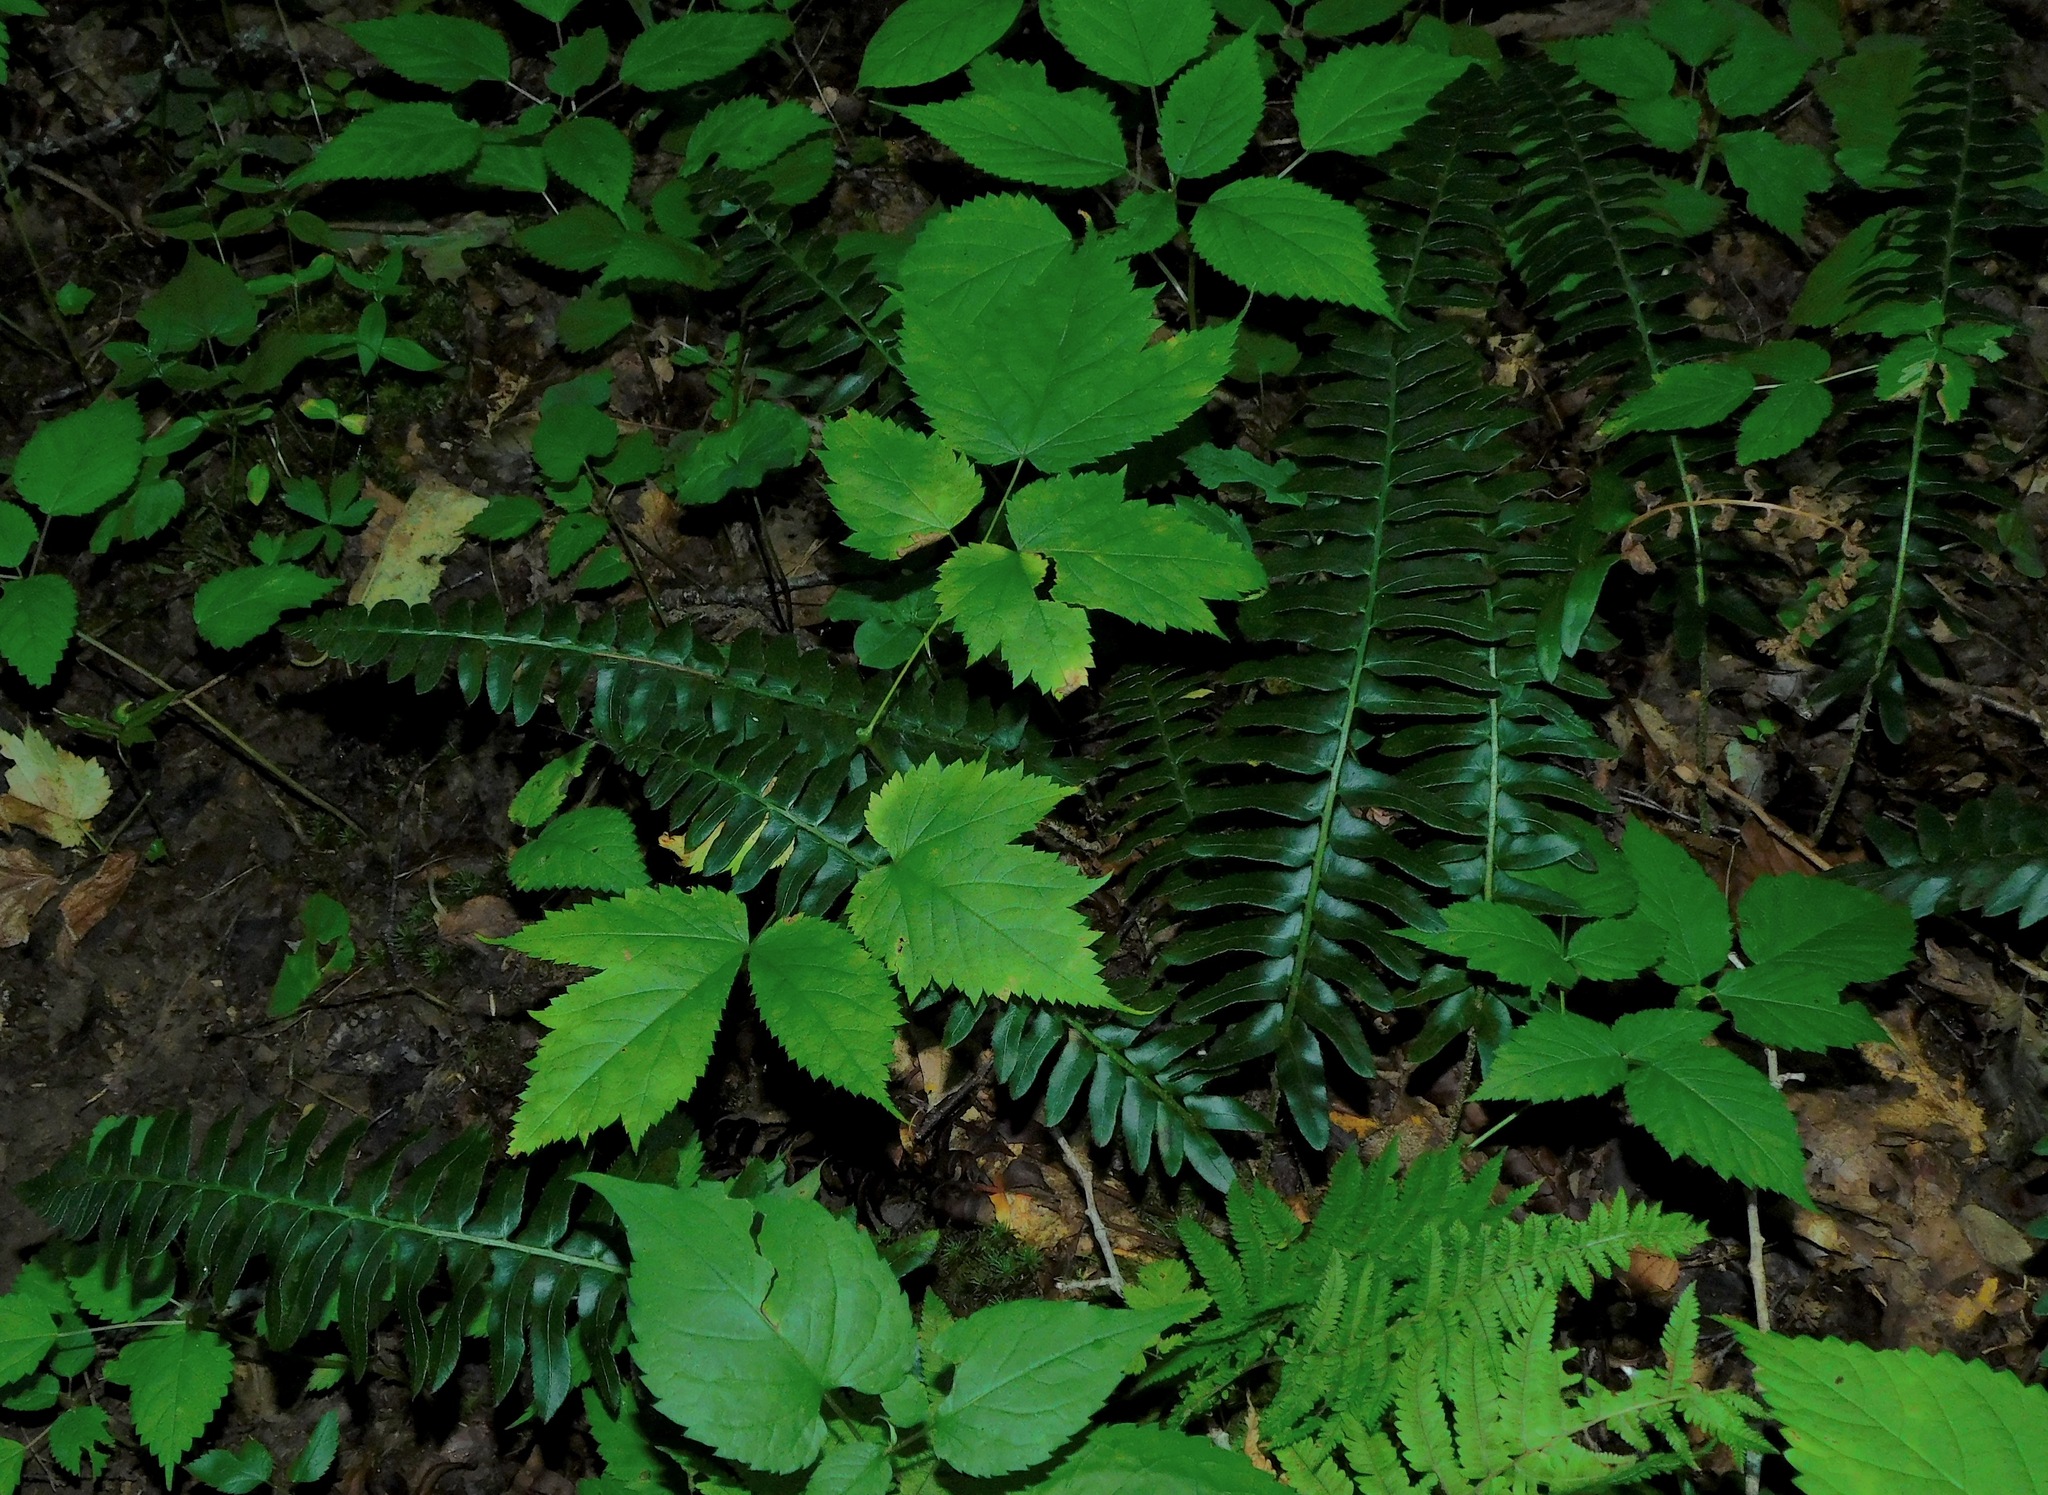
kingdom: Plantae
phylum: Tracheophyta
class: Polypodiopsida
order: Polypodiales
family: Dryopteridaceae
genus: Polystichum
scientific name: Polystichum acrostichoides
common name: Christmas fern
